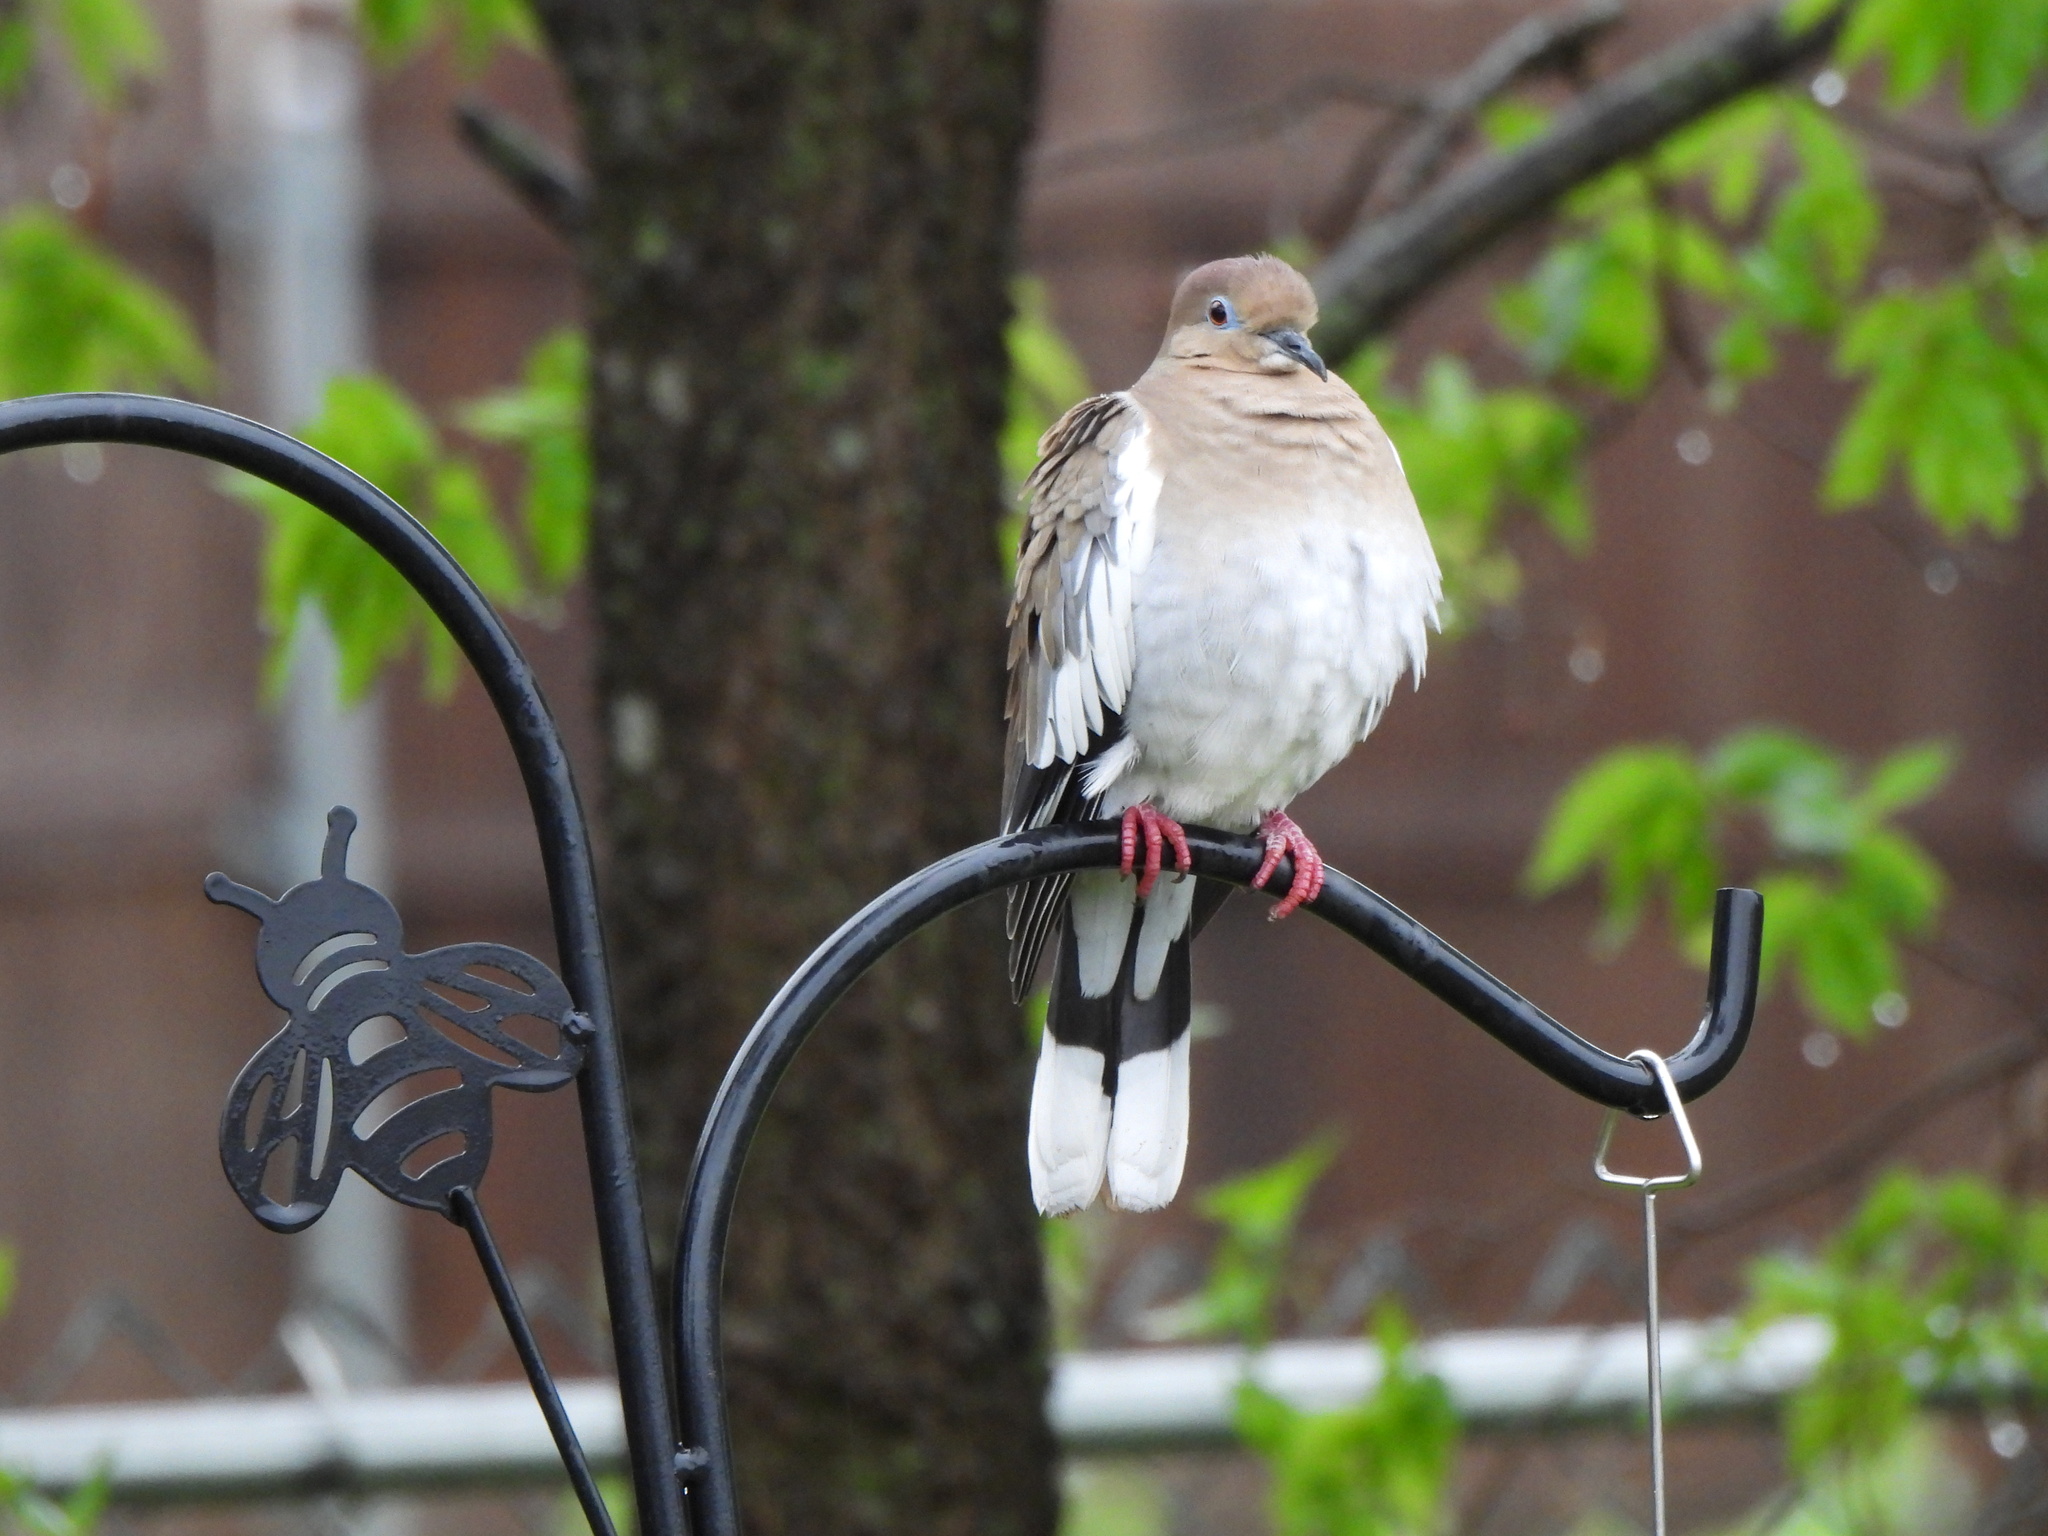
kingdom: Animalia
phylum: Chordata
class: Aves
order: Columbiformes
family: Columbidae
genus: Zenaida
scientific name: Zenaida asiatica
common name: White-winged dove
